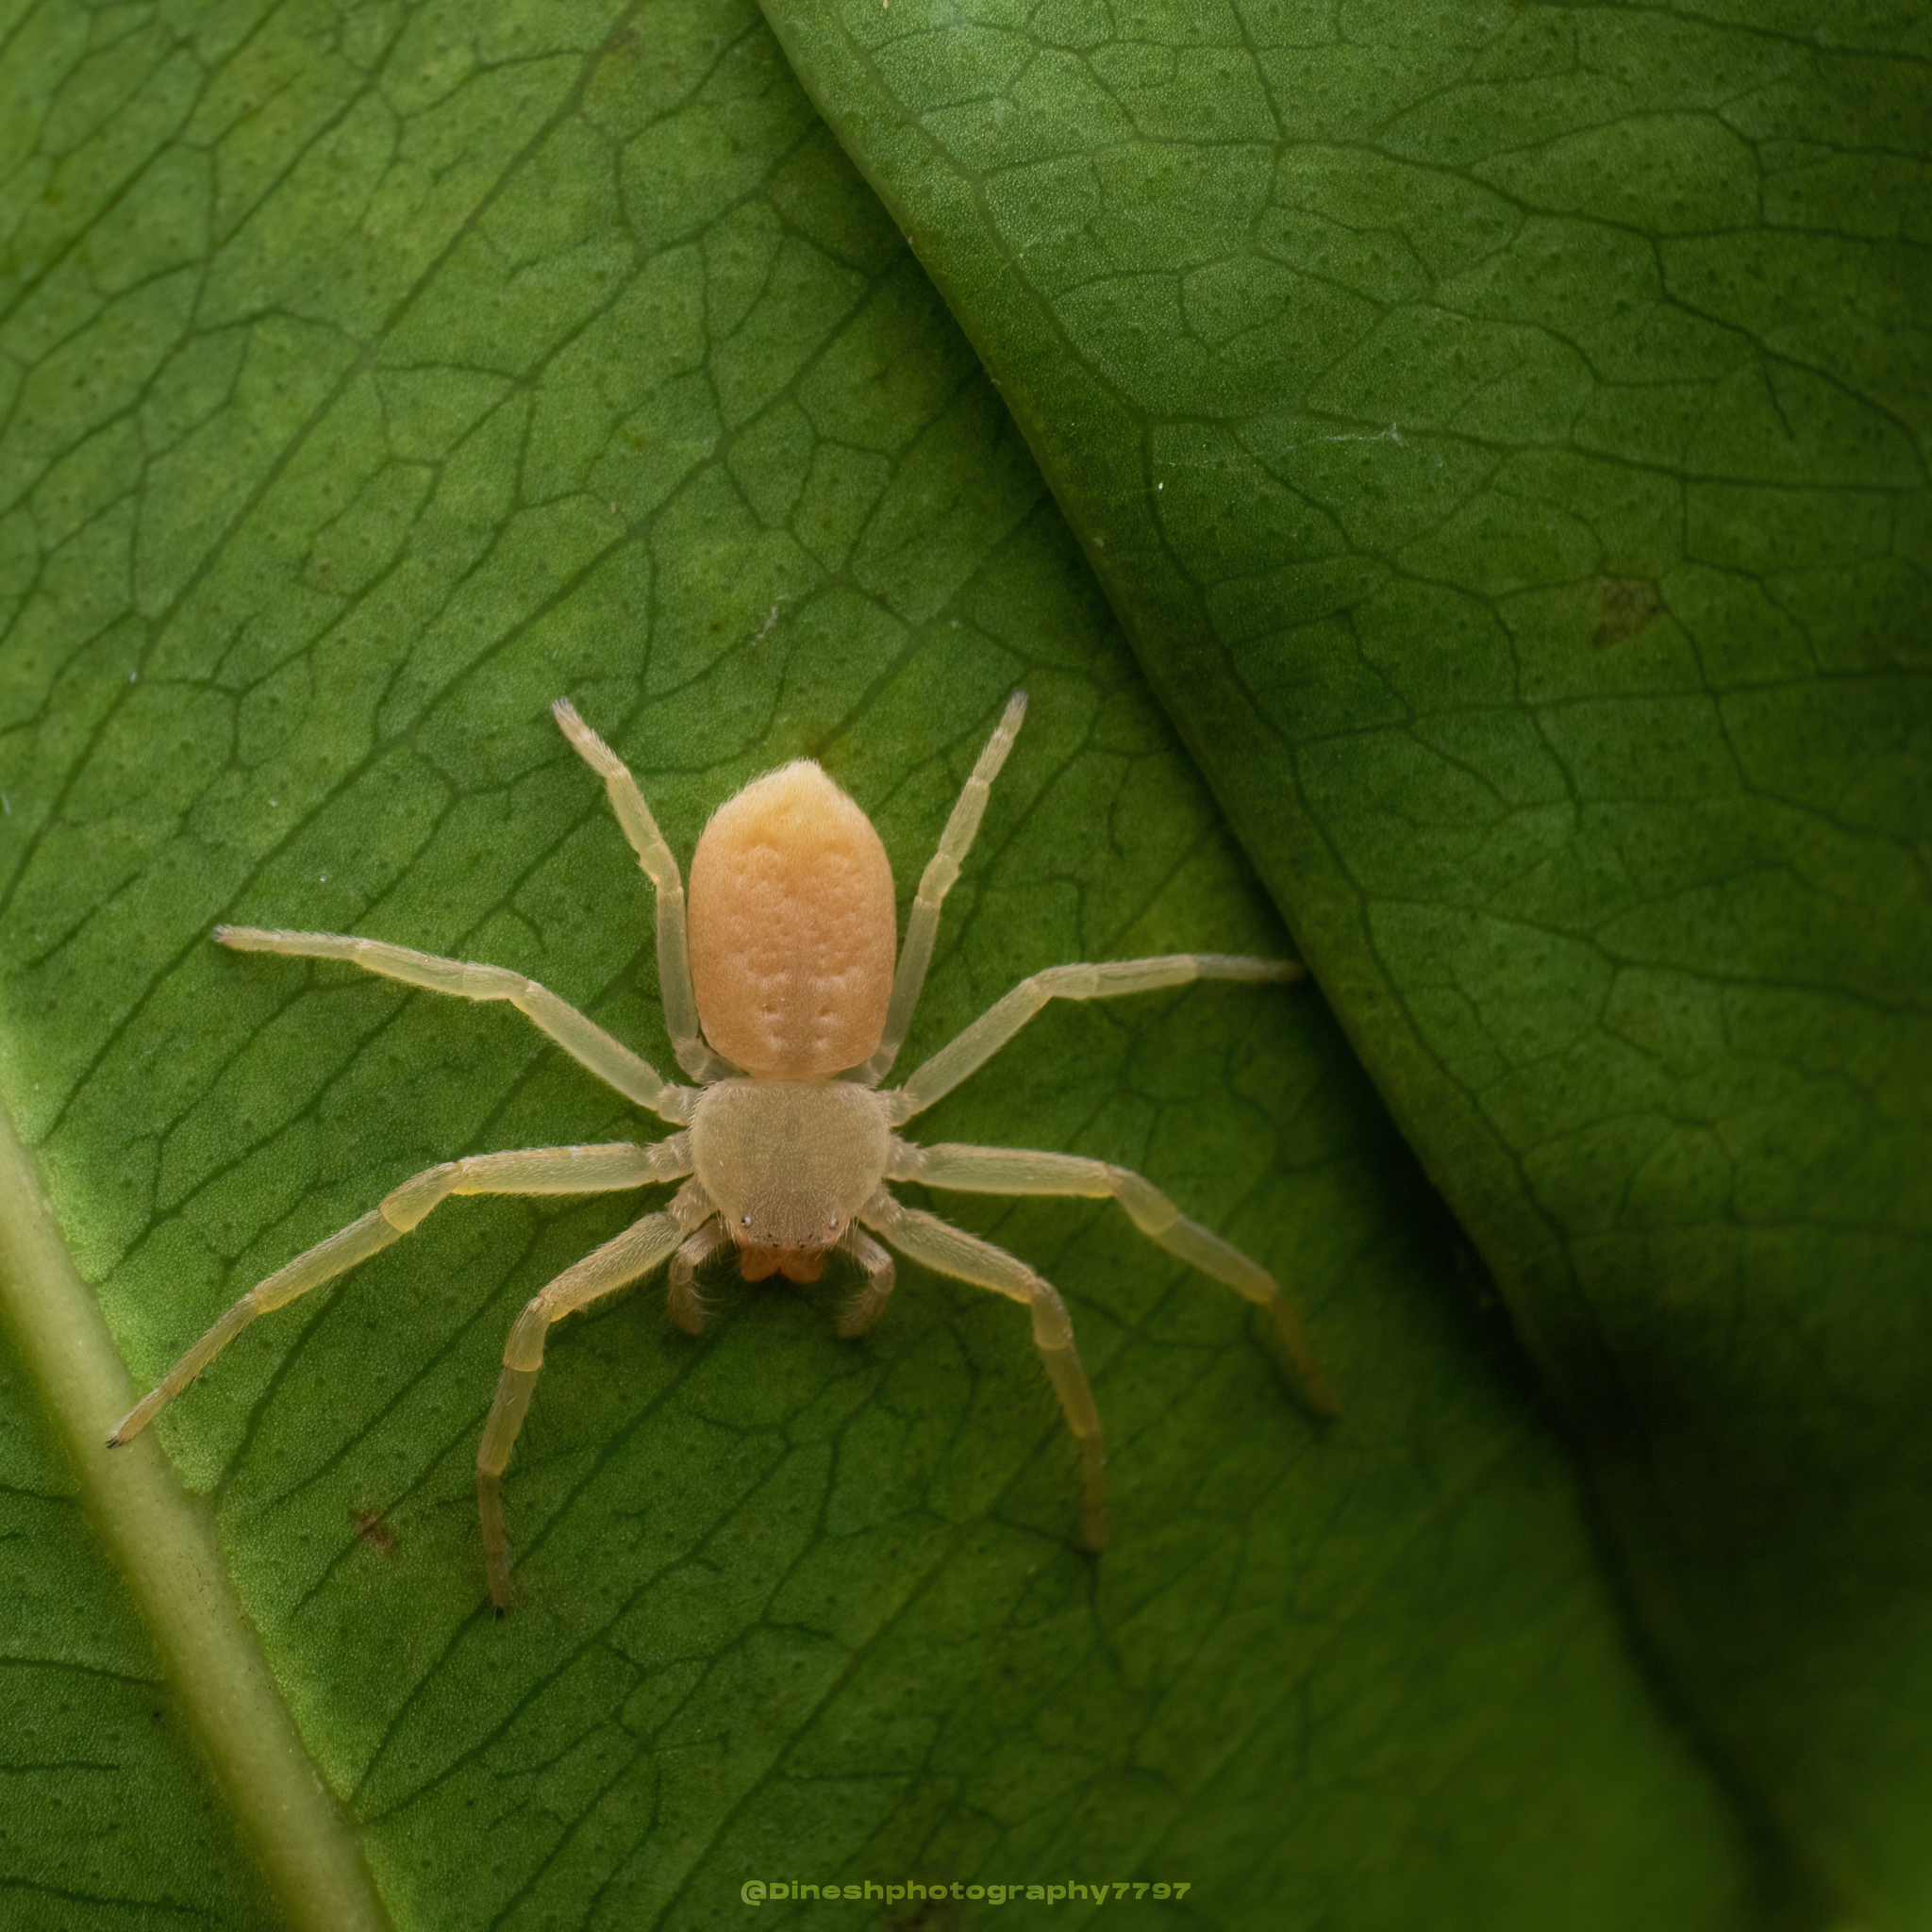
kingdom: Animalia
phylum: Arthropoda
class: Arachnida
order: Araneae
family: Philodromidae
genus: Psellonus
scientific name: Psellonus planus
